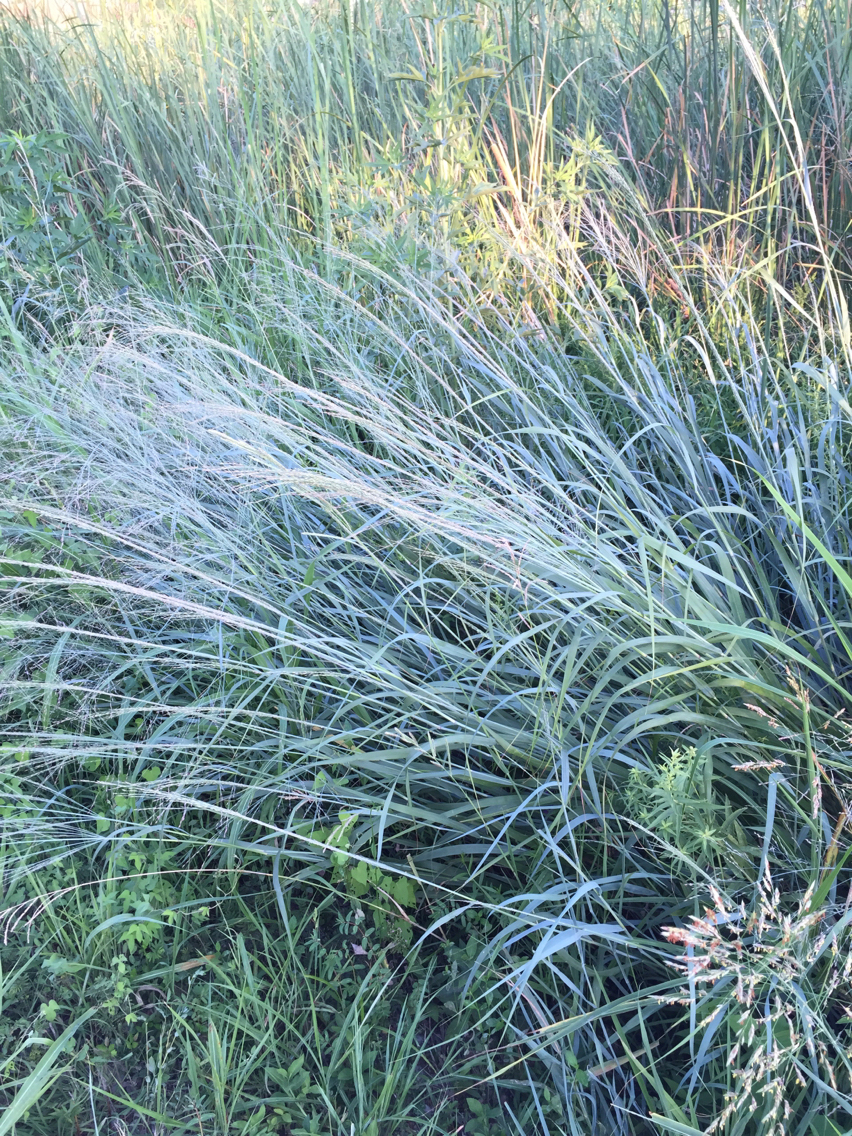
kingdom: Plantae
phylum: Tracheophyta
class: Liliopsida
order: Poales
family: Poaceae
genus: Panicum
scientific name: Panicum virgatum
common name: Switchgrass
